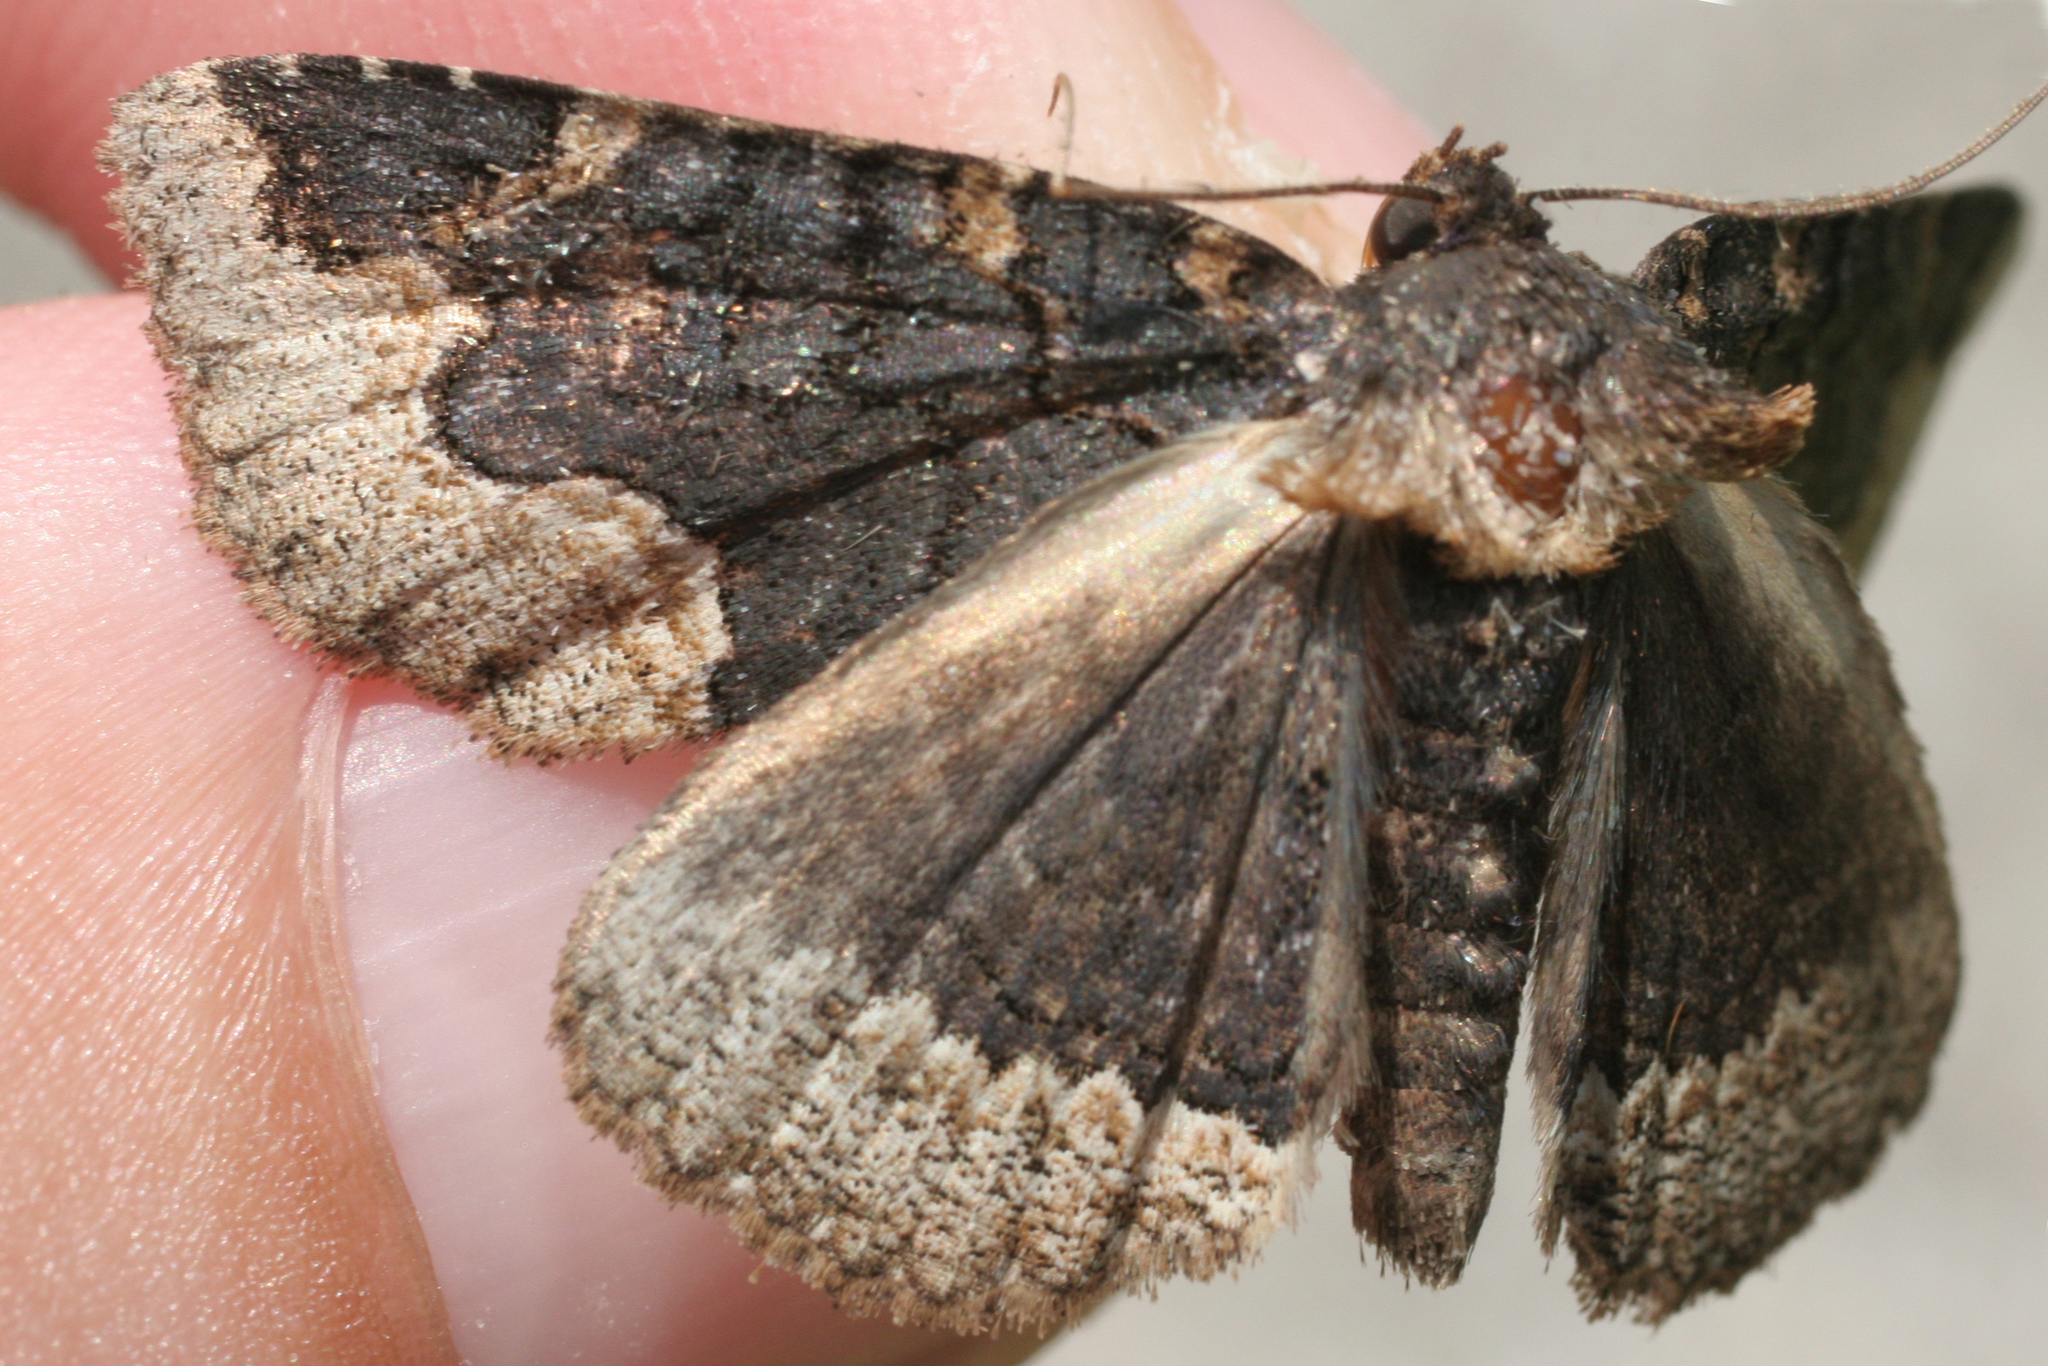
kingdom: Animalia
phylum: Arthropoda
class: Insecta
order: Lepidoptera
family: Erebidae
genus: Zale
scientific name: Zale horrida
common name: Horrid zale moth
